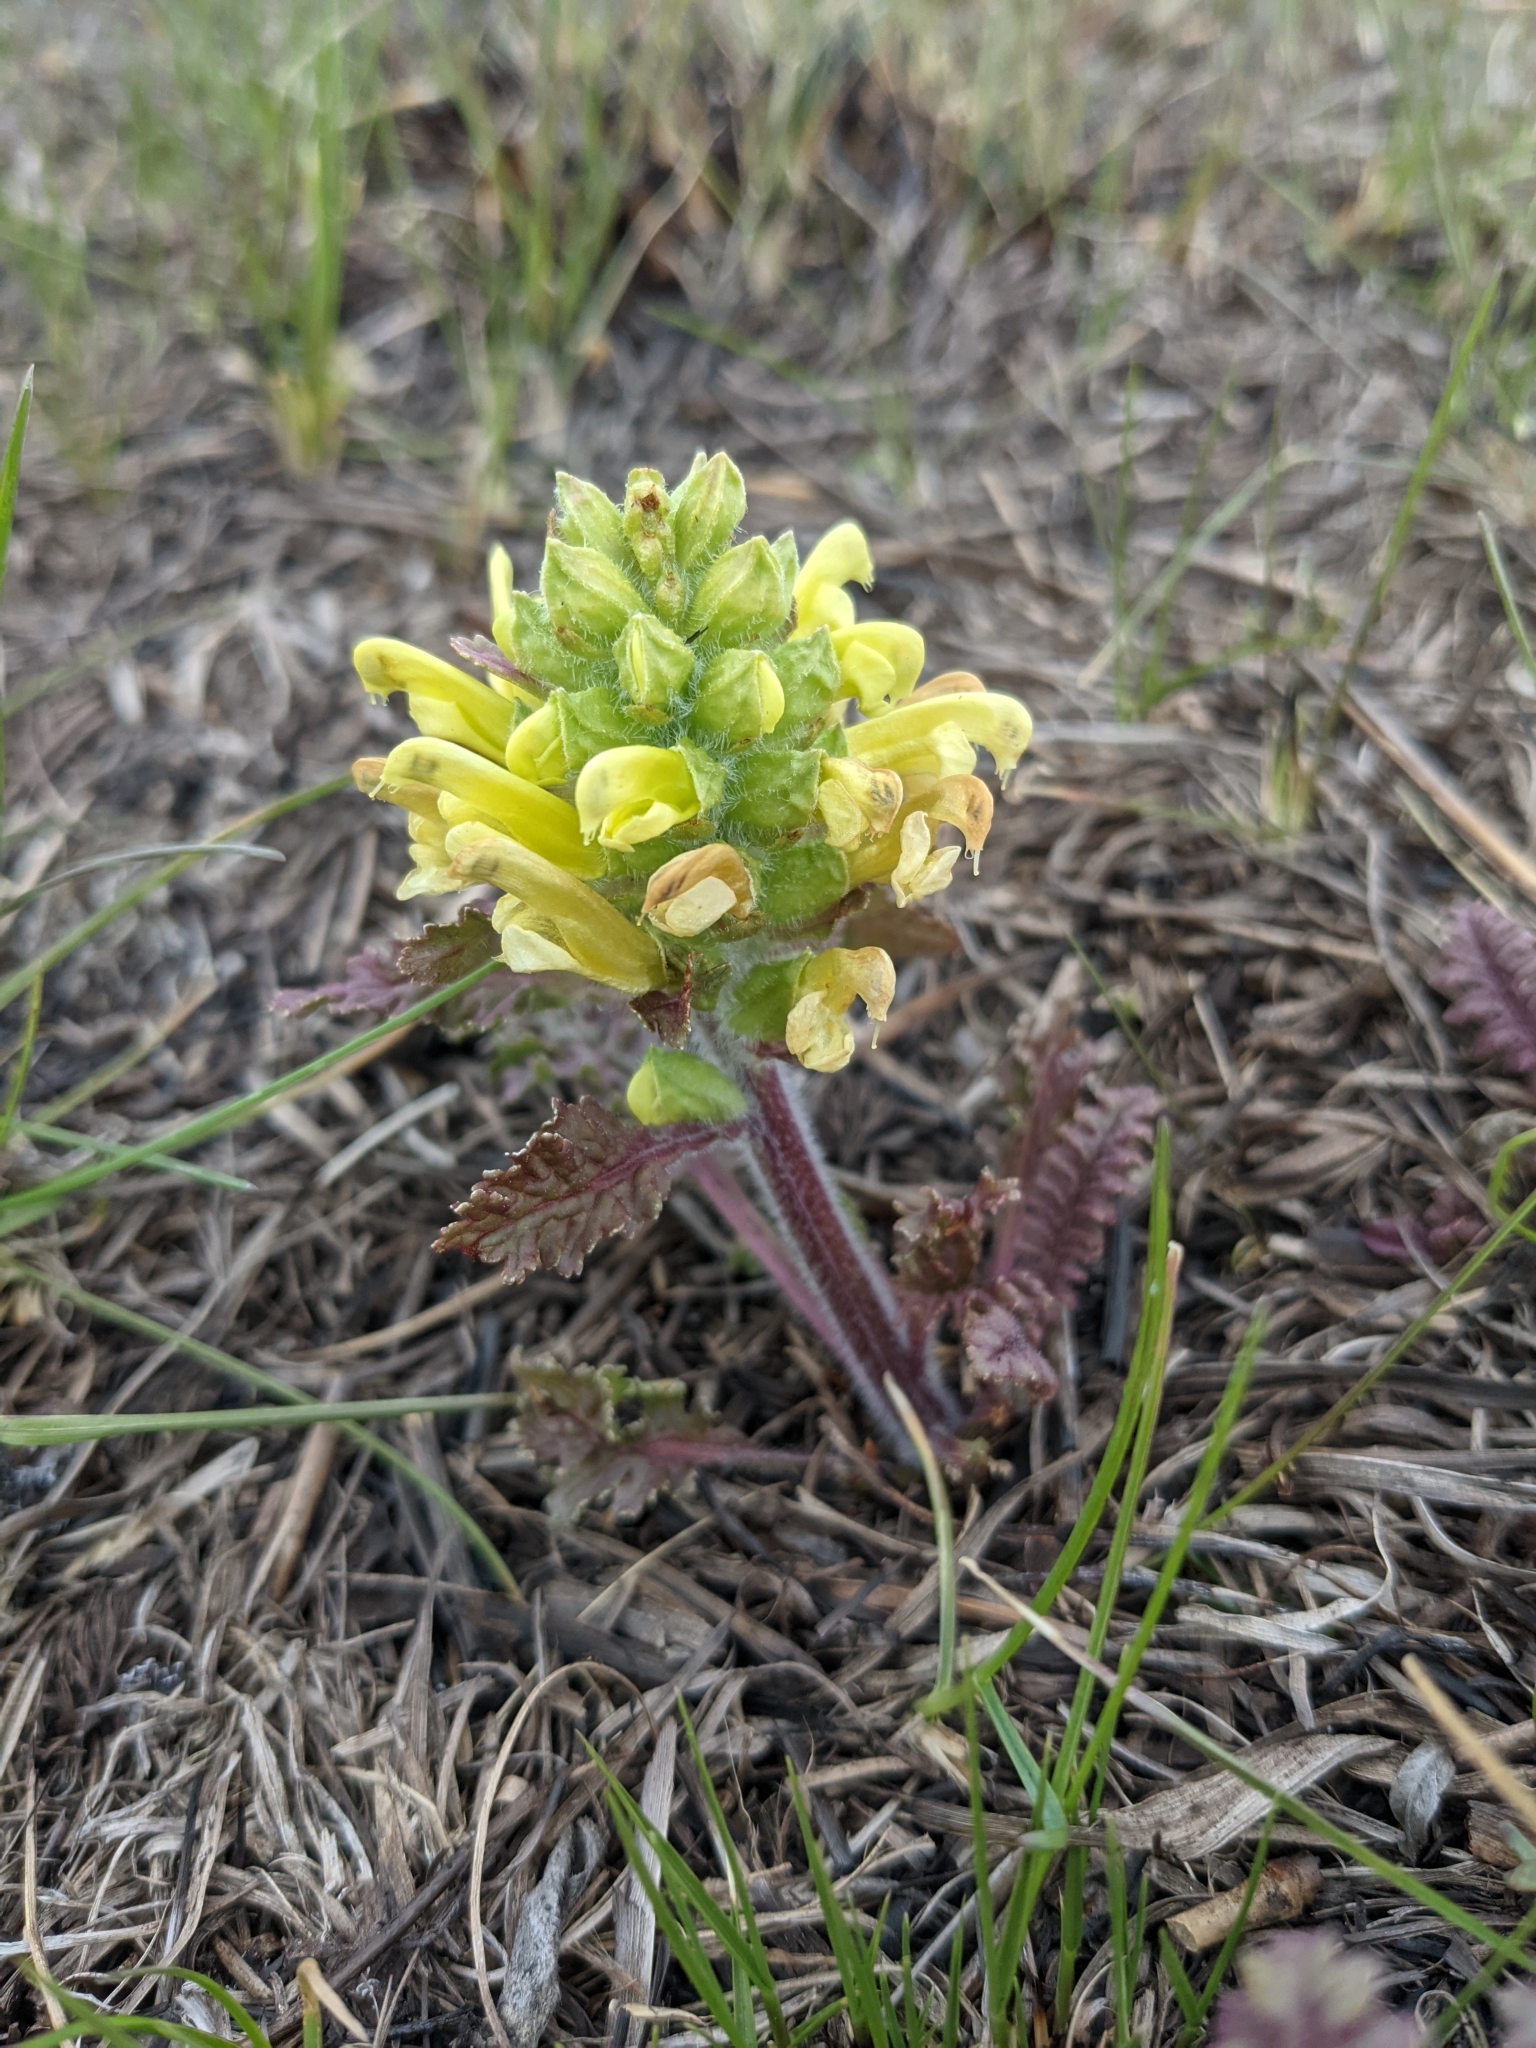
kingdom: Plantae
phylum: Tracheophyta
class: Magnoliopsida
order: Lamiales
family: Orobanchaceae
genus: Pedicularis
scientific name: Pedicularis canadensis
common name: Early lousewort
